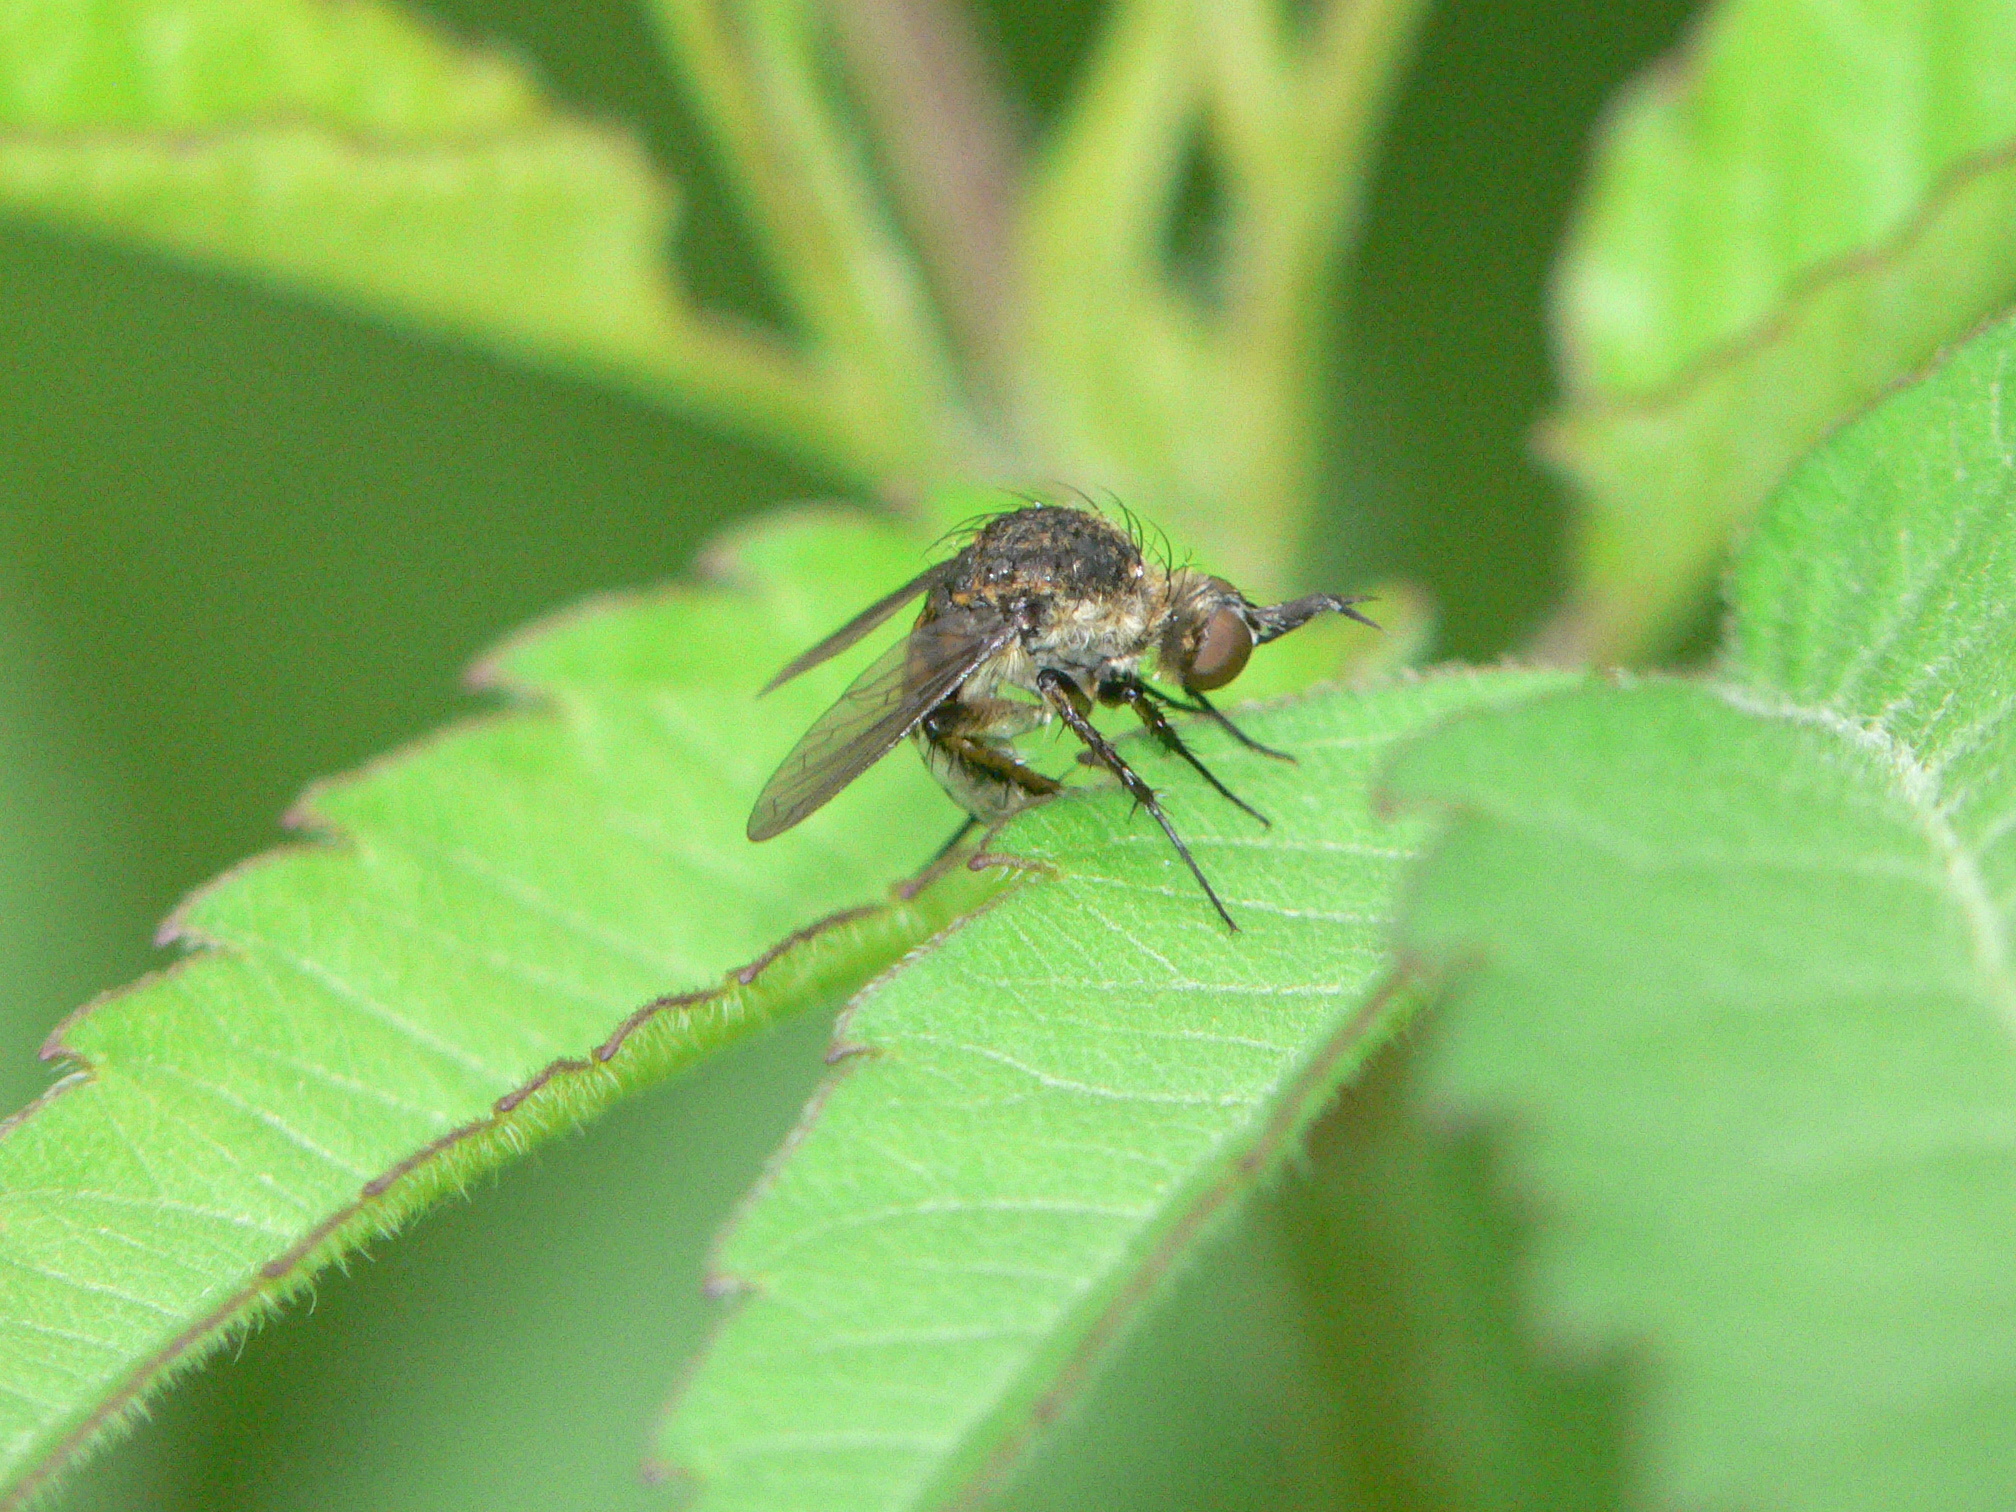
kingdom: Animalia
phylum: Arthropoda
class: Insecta
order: Diptera
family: Bombyliidae
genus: Toxophora
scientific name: Toxophora amphitea
